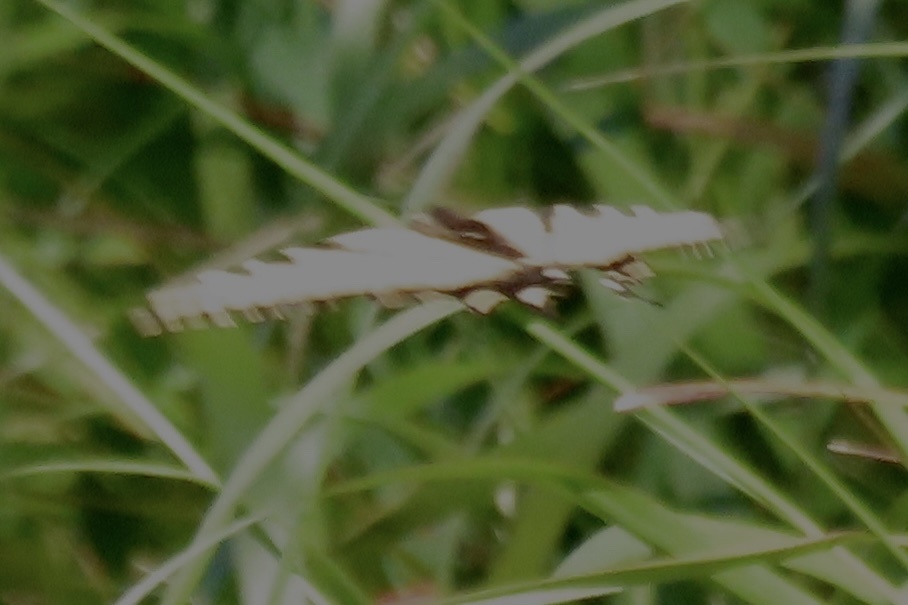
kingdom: Animalia
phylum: Arthropoda
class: Insecta
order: Lepidoptera
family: Papilionidae
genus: Papilio
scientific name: Papilio rutulus
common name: Western tiger swallowtail
